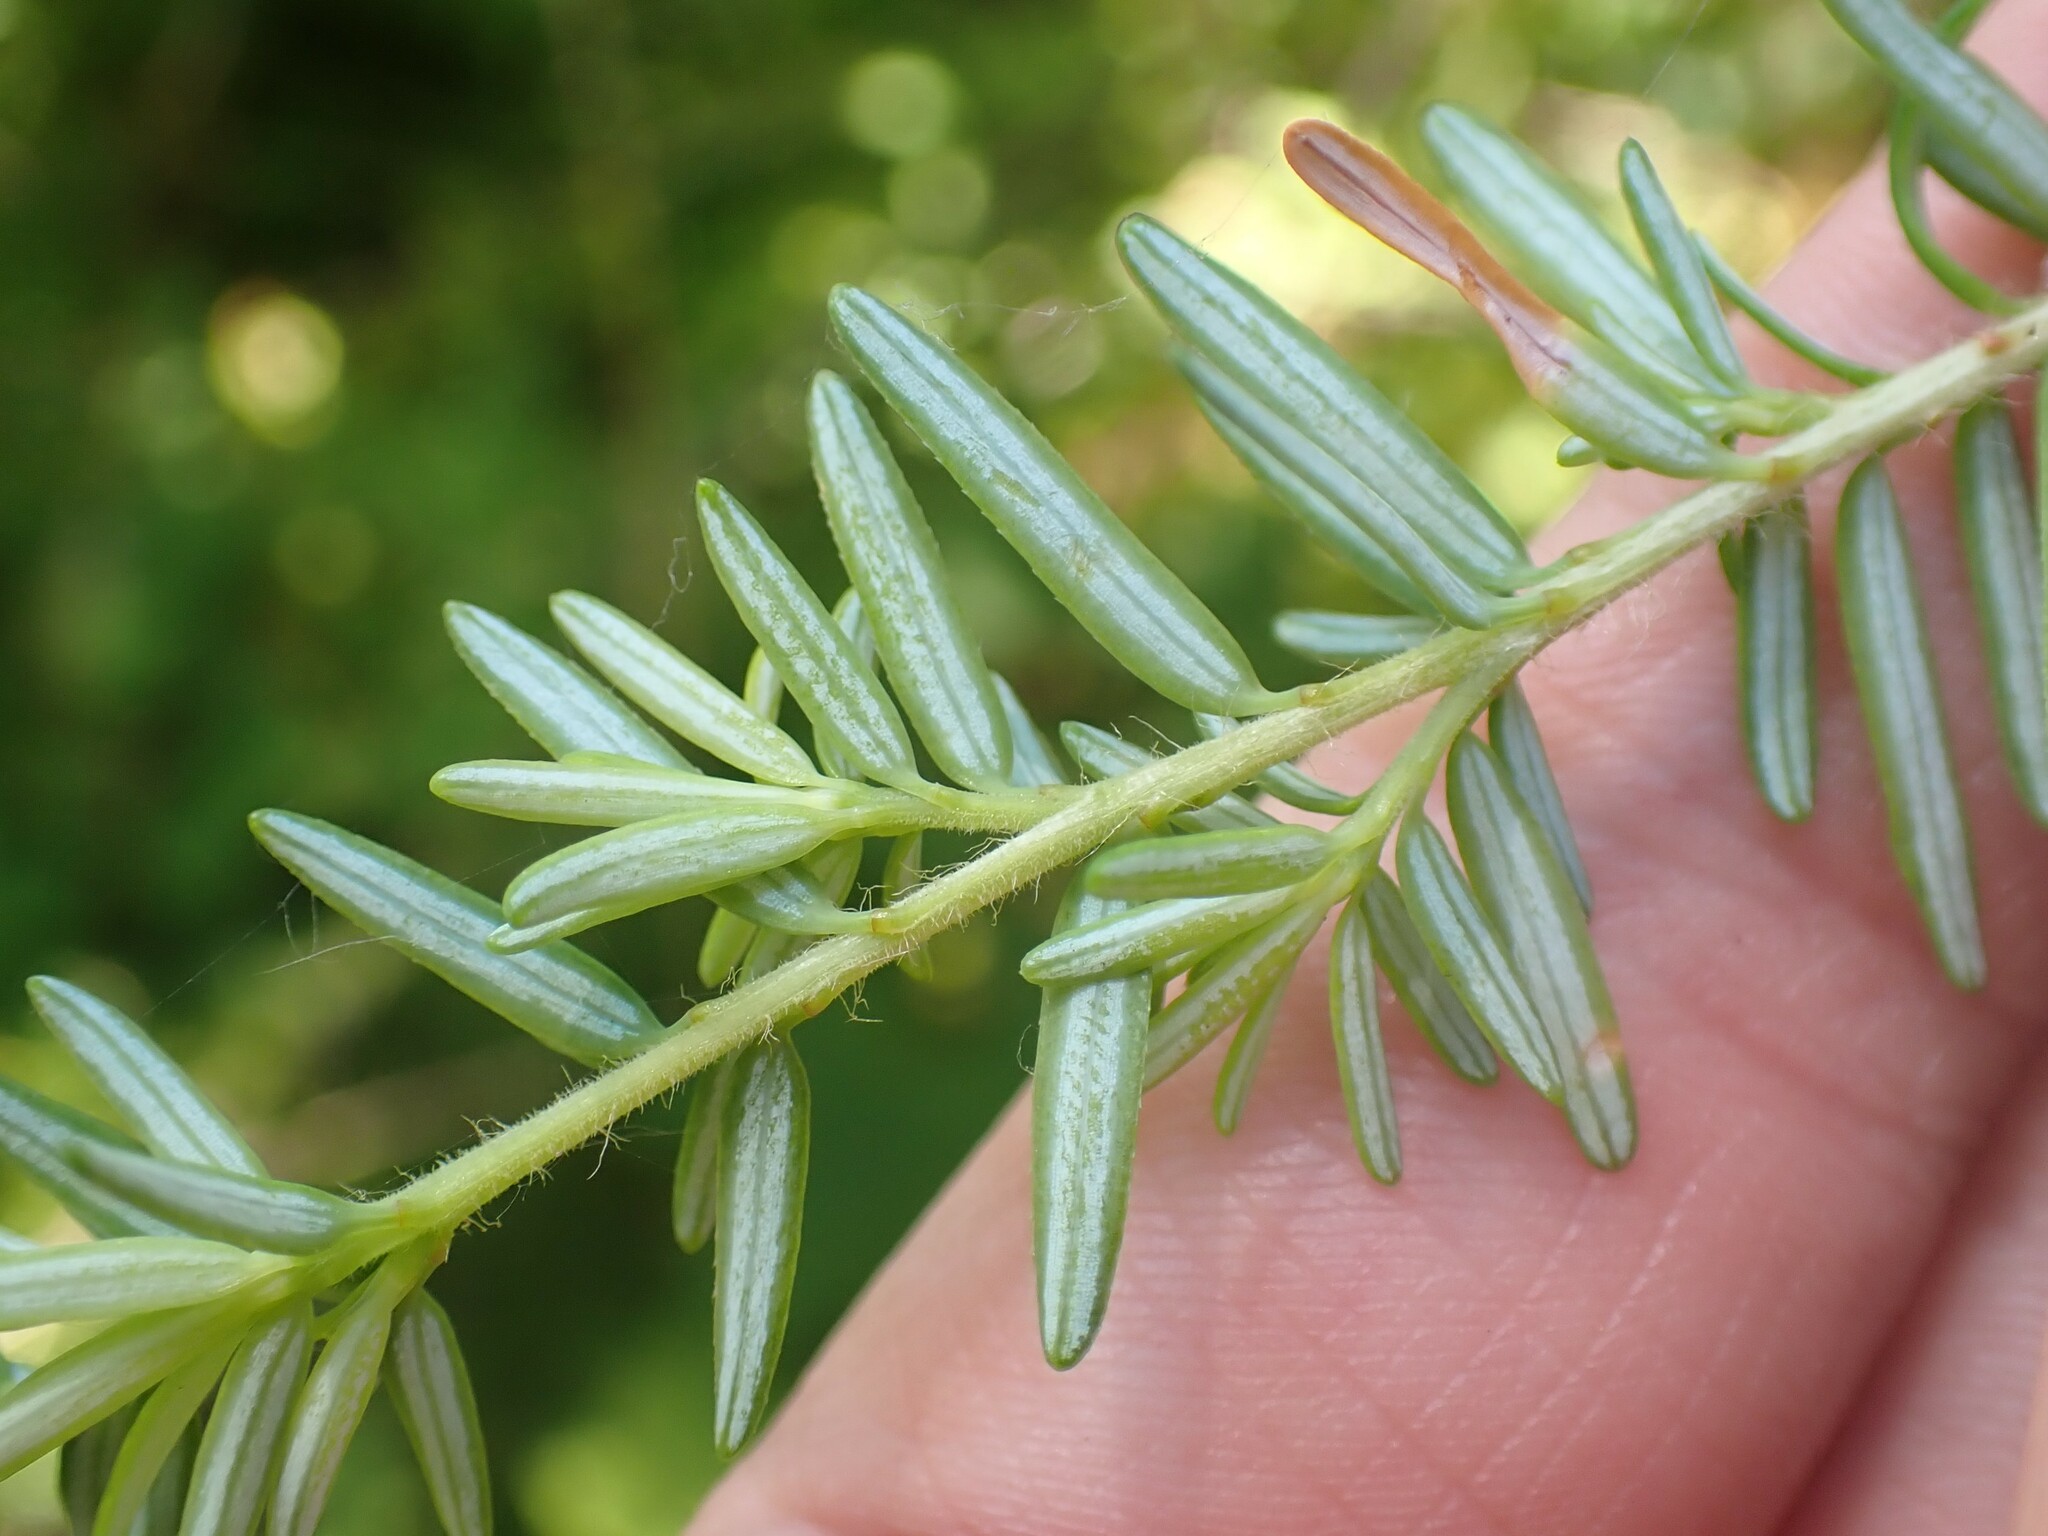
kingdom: Plantae
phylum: Tracheophyta
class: Pinopsida
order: Pinales
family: Pinaceae
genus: Tsuga
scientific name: Tsuga heterophylla
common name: Western hemlock
